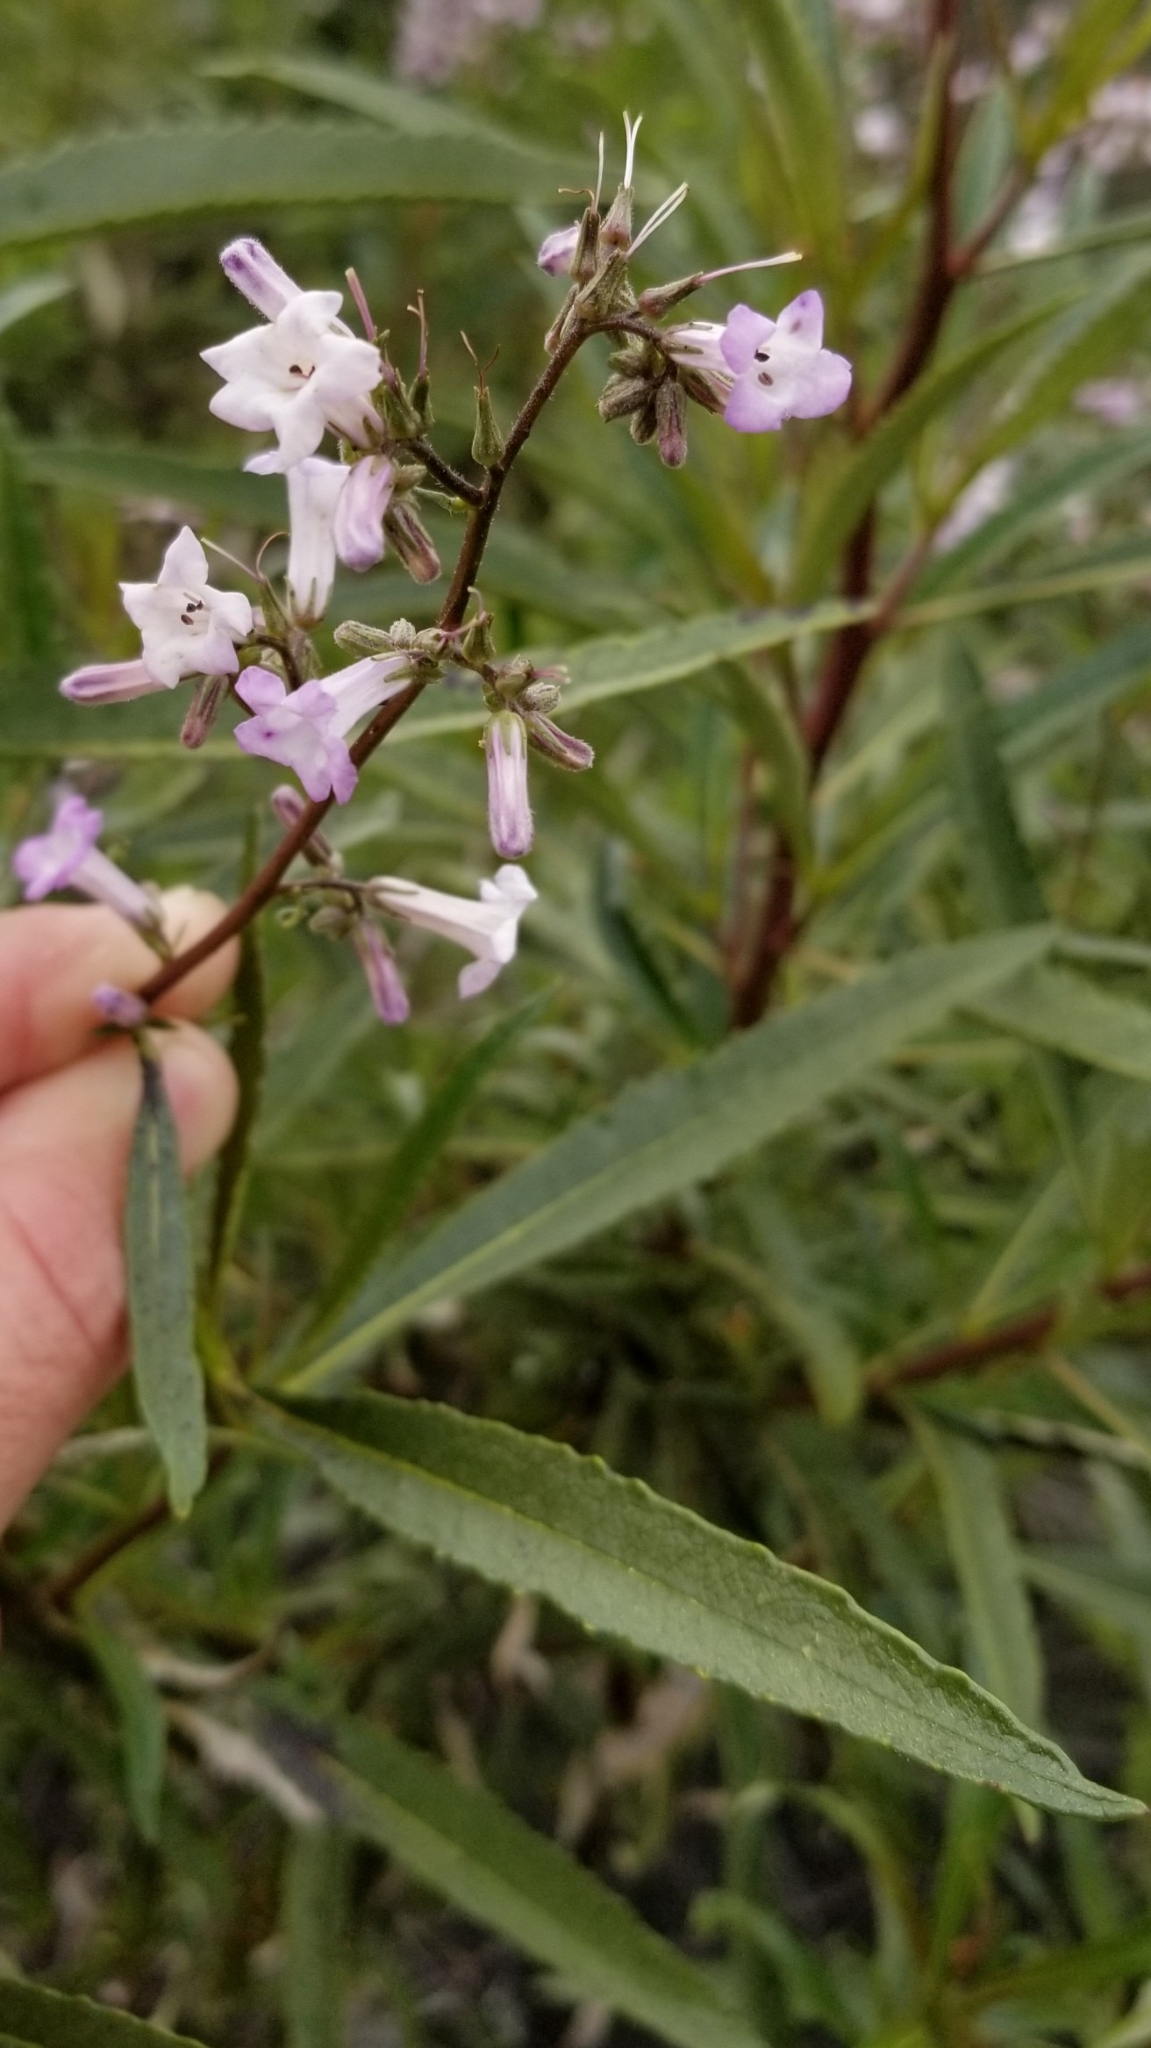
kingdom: Plantae
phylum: Tracheophyta
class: Magnoliopsida
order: Boraginales
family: Namaceae
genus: Eriodictyon
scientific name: Eriodictyon californicum
